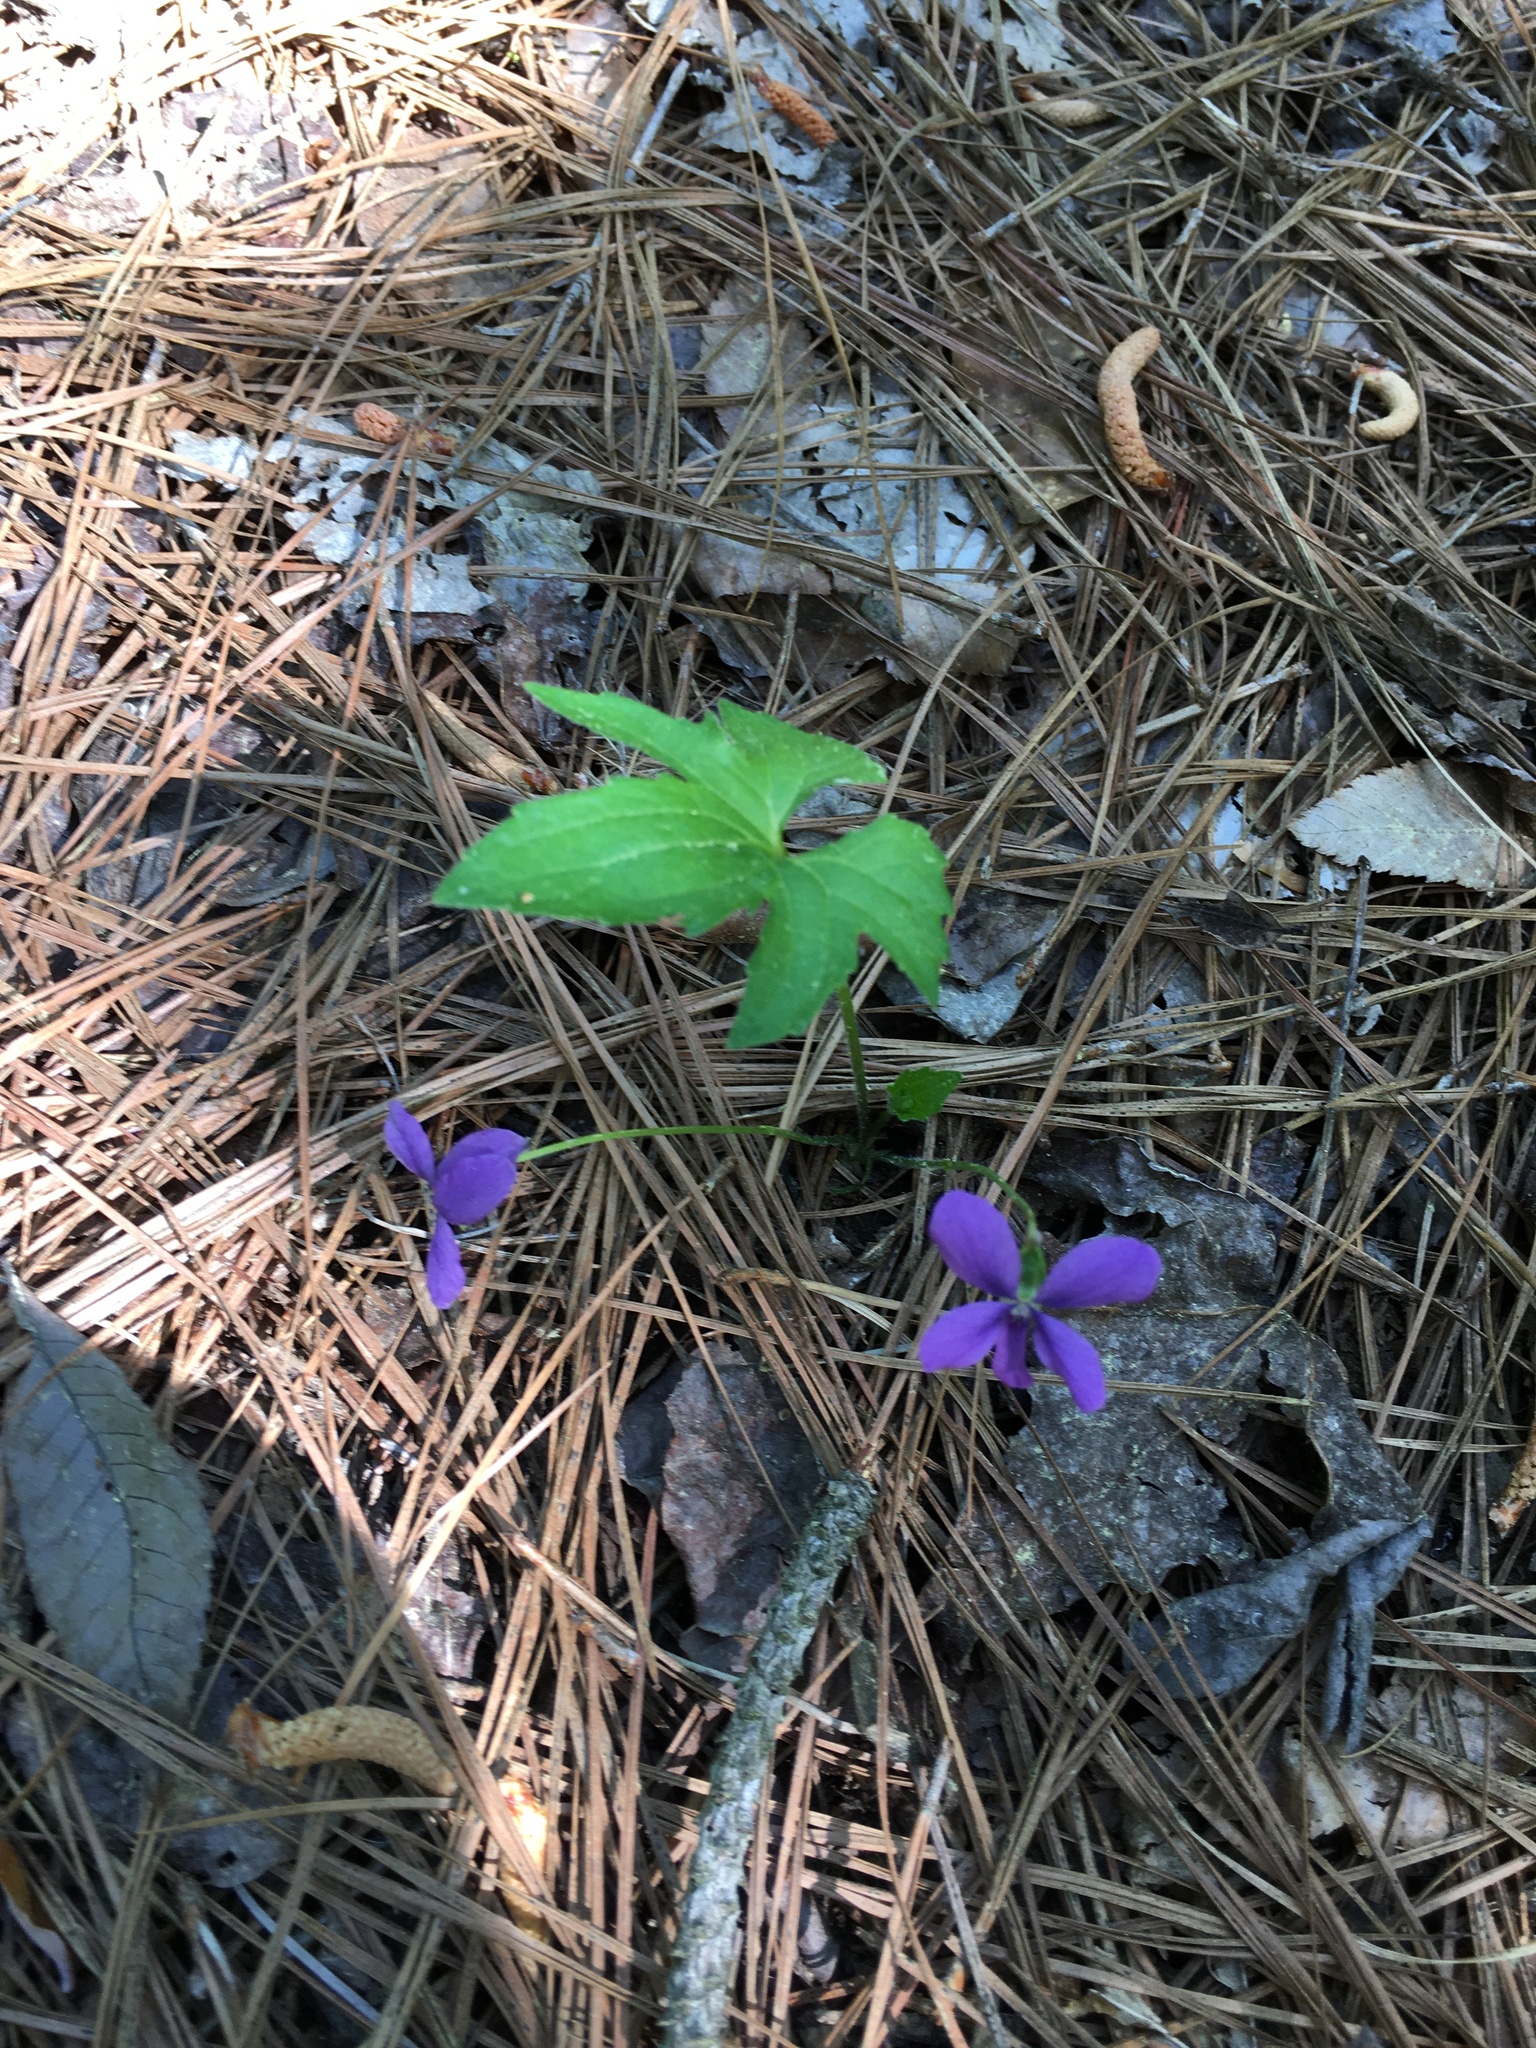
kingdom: Plantae
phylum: Tracheophyta
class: Magnoliopsida
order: Malpighiales
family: Violaceae
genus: Viola
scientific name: Viola palmata
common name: Early blue violet
